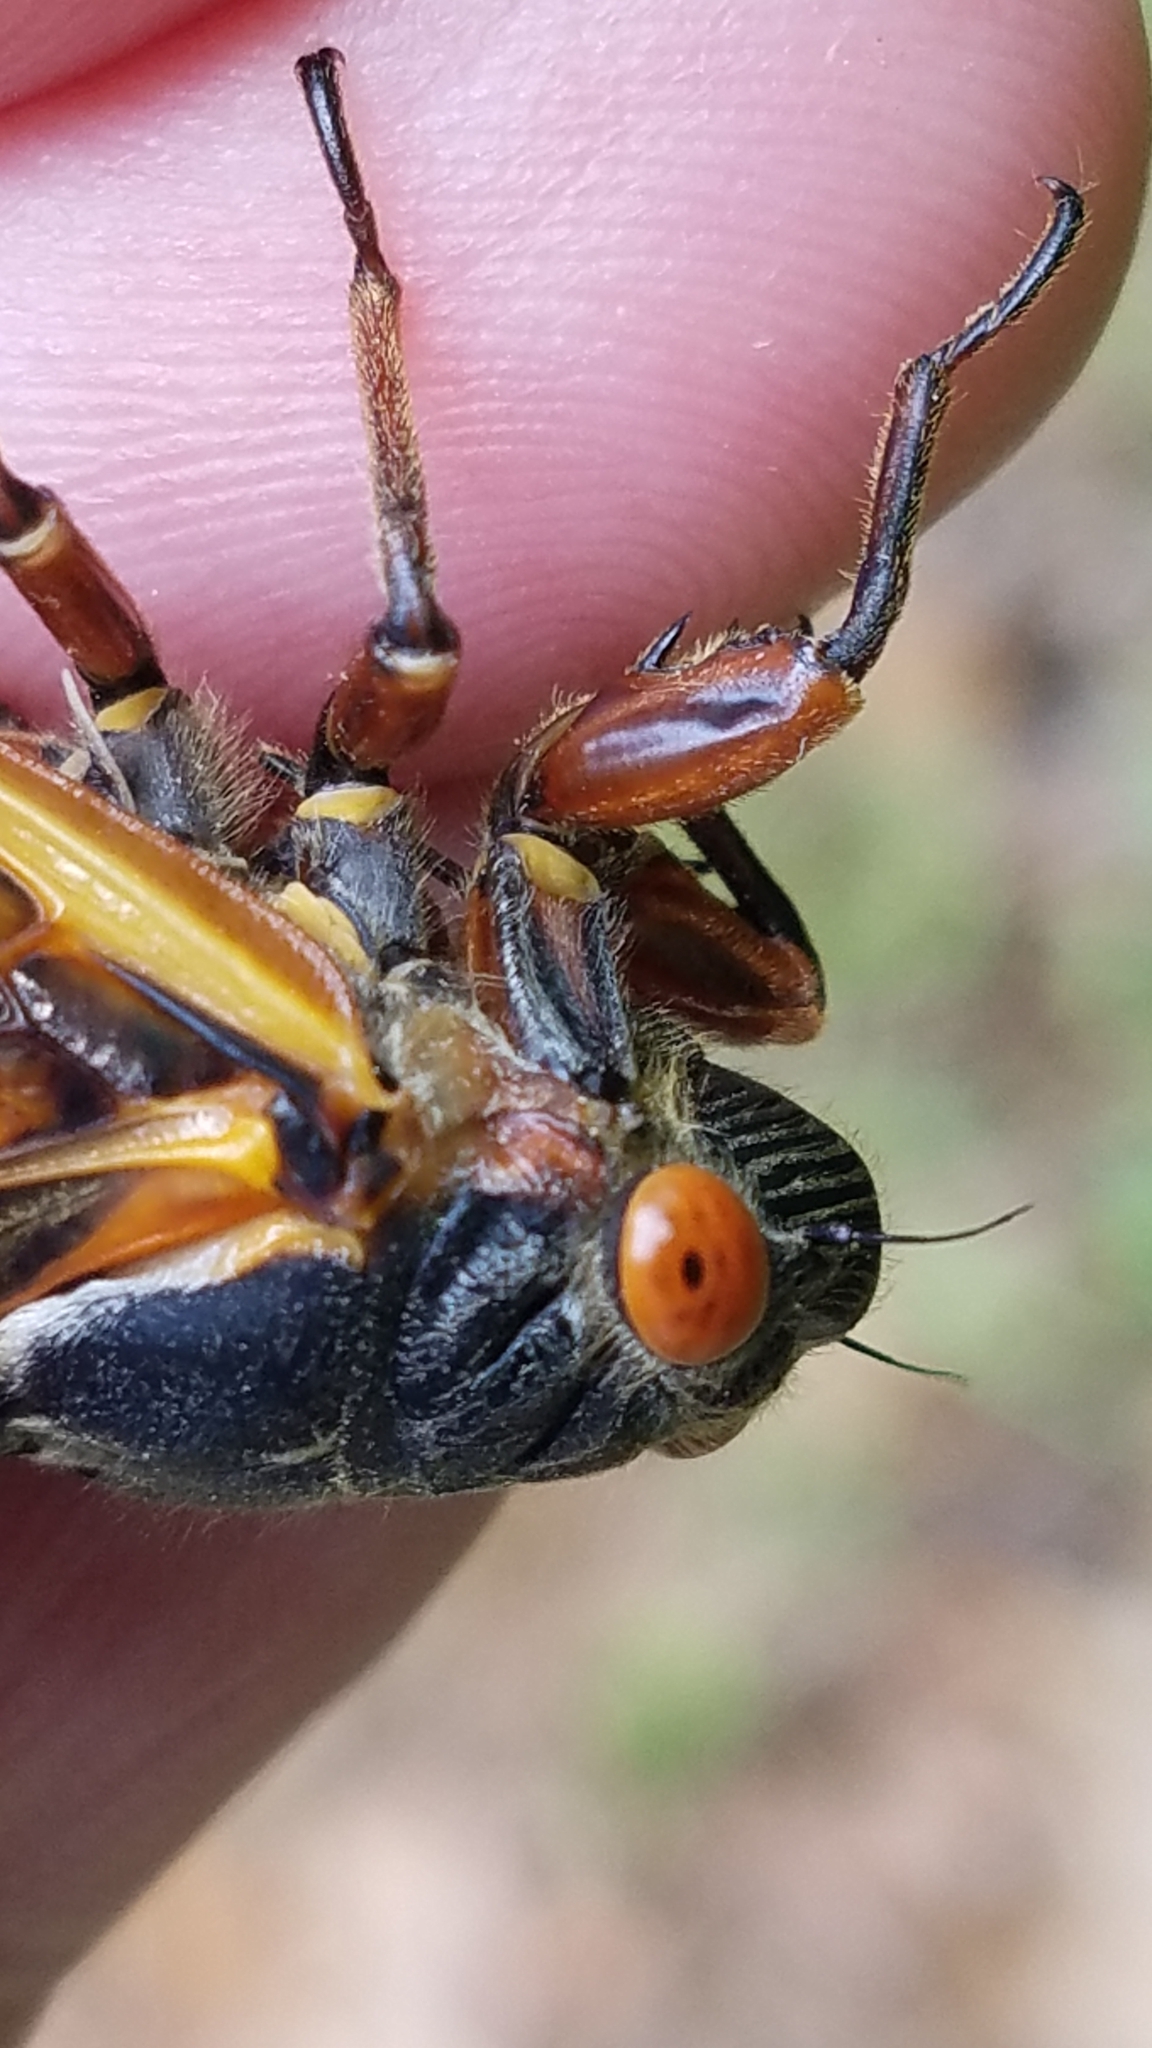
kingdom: Animalia
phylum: Arthropoda
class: Insecta
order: Hemiptera
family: Cicadidae
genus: Magicicada
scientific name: Magicicada septendecim
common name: Periodical cicada
